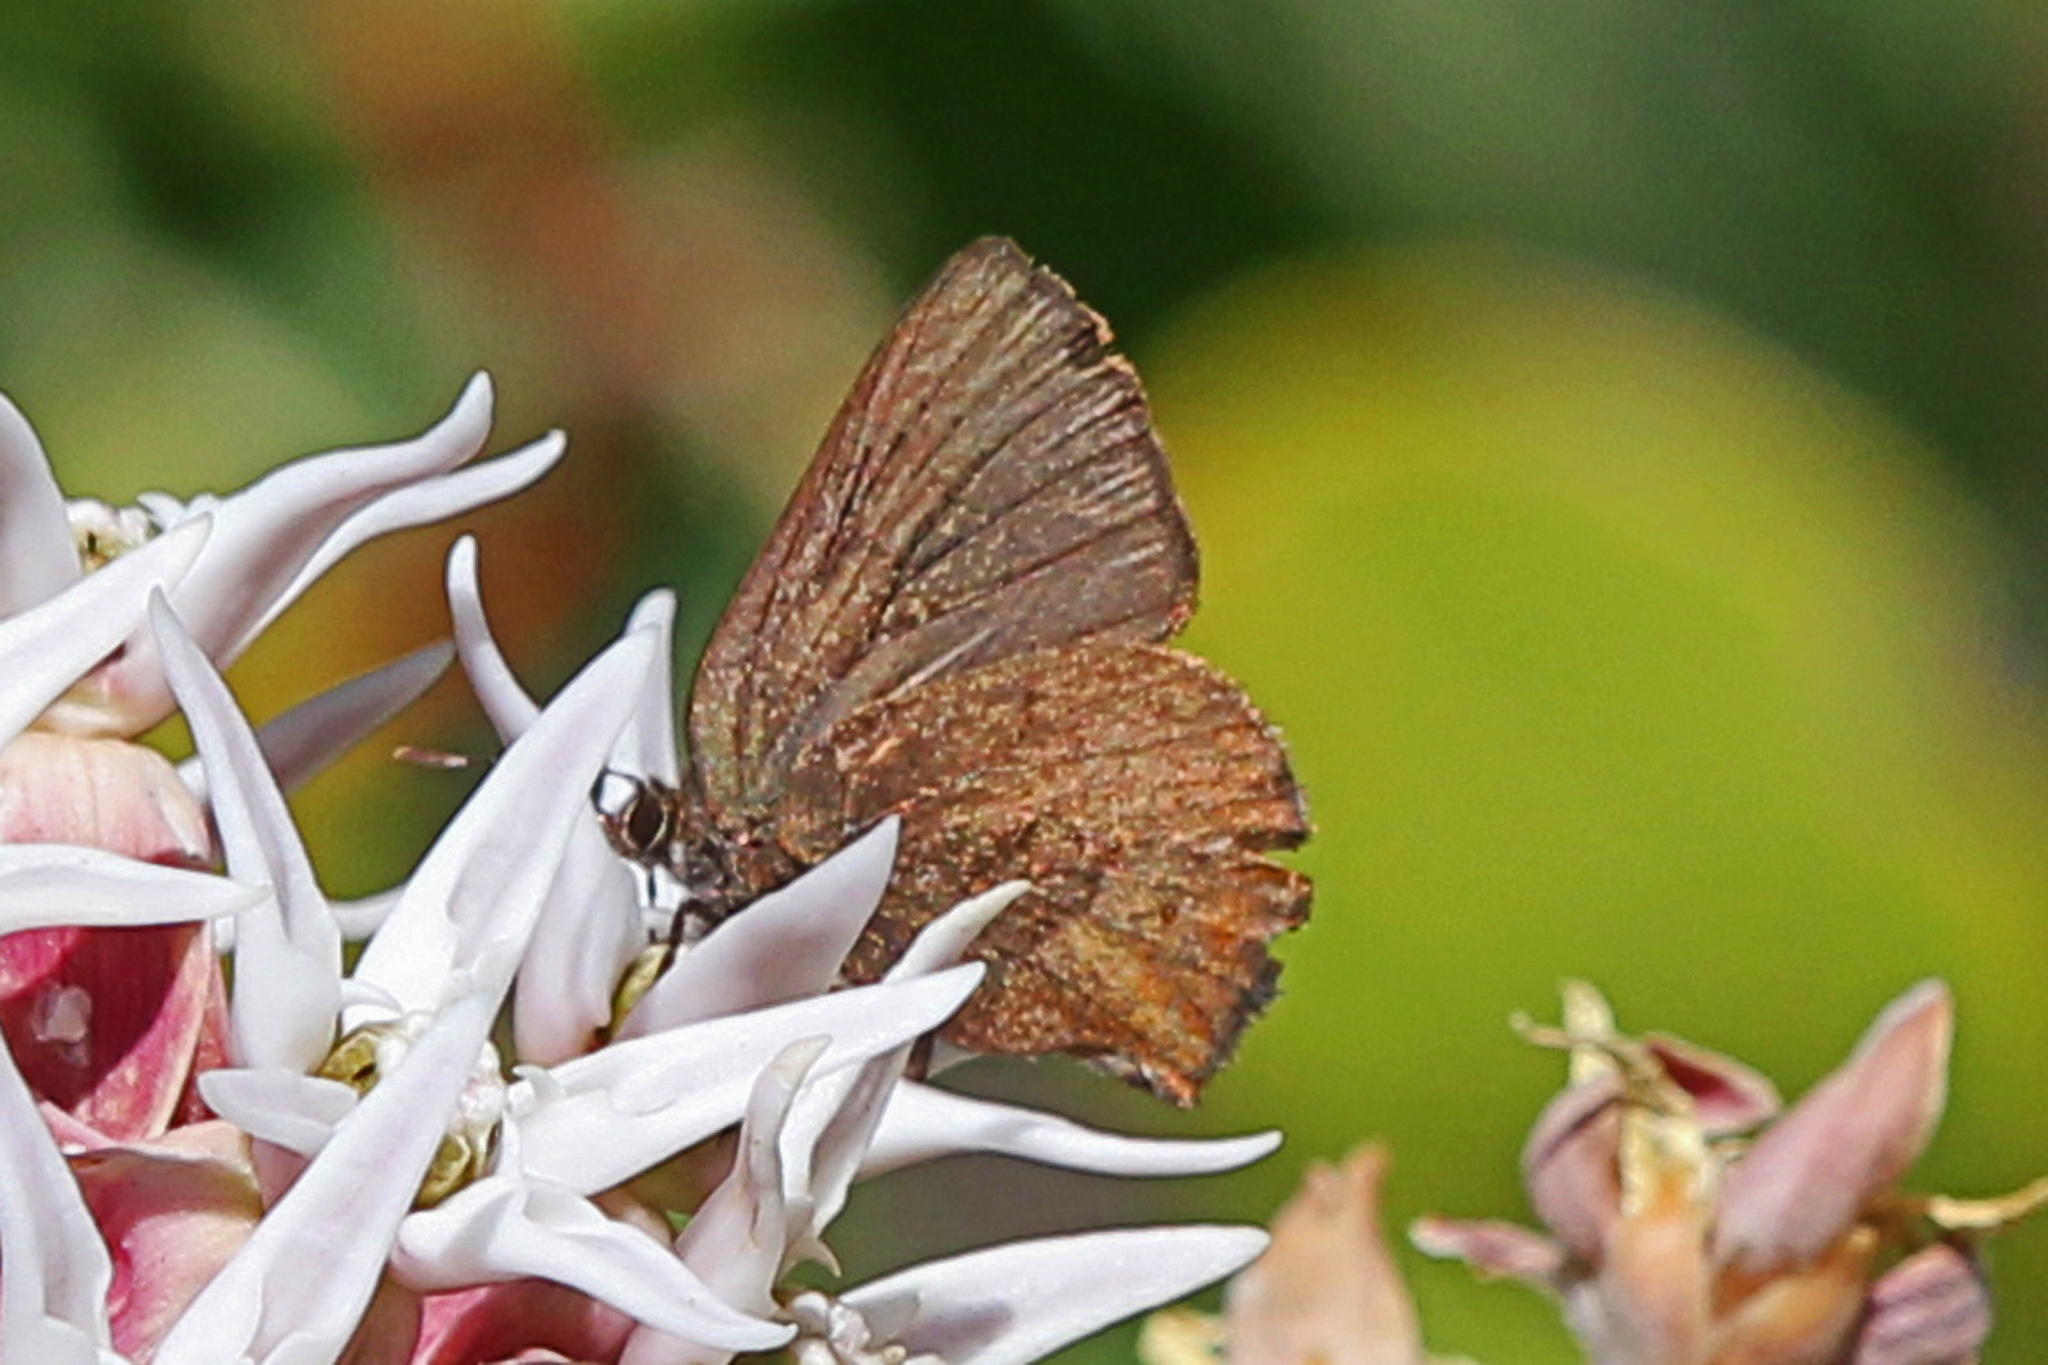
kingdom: Animalia
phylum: Arthropoda
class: Insecta
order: Lepidoptera
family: Lycaenidae
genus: Incisalia
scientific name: Incisalia irioides
